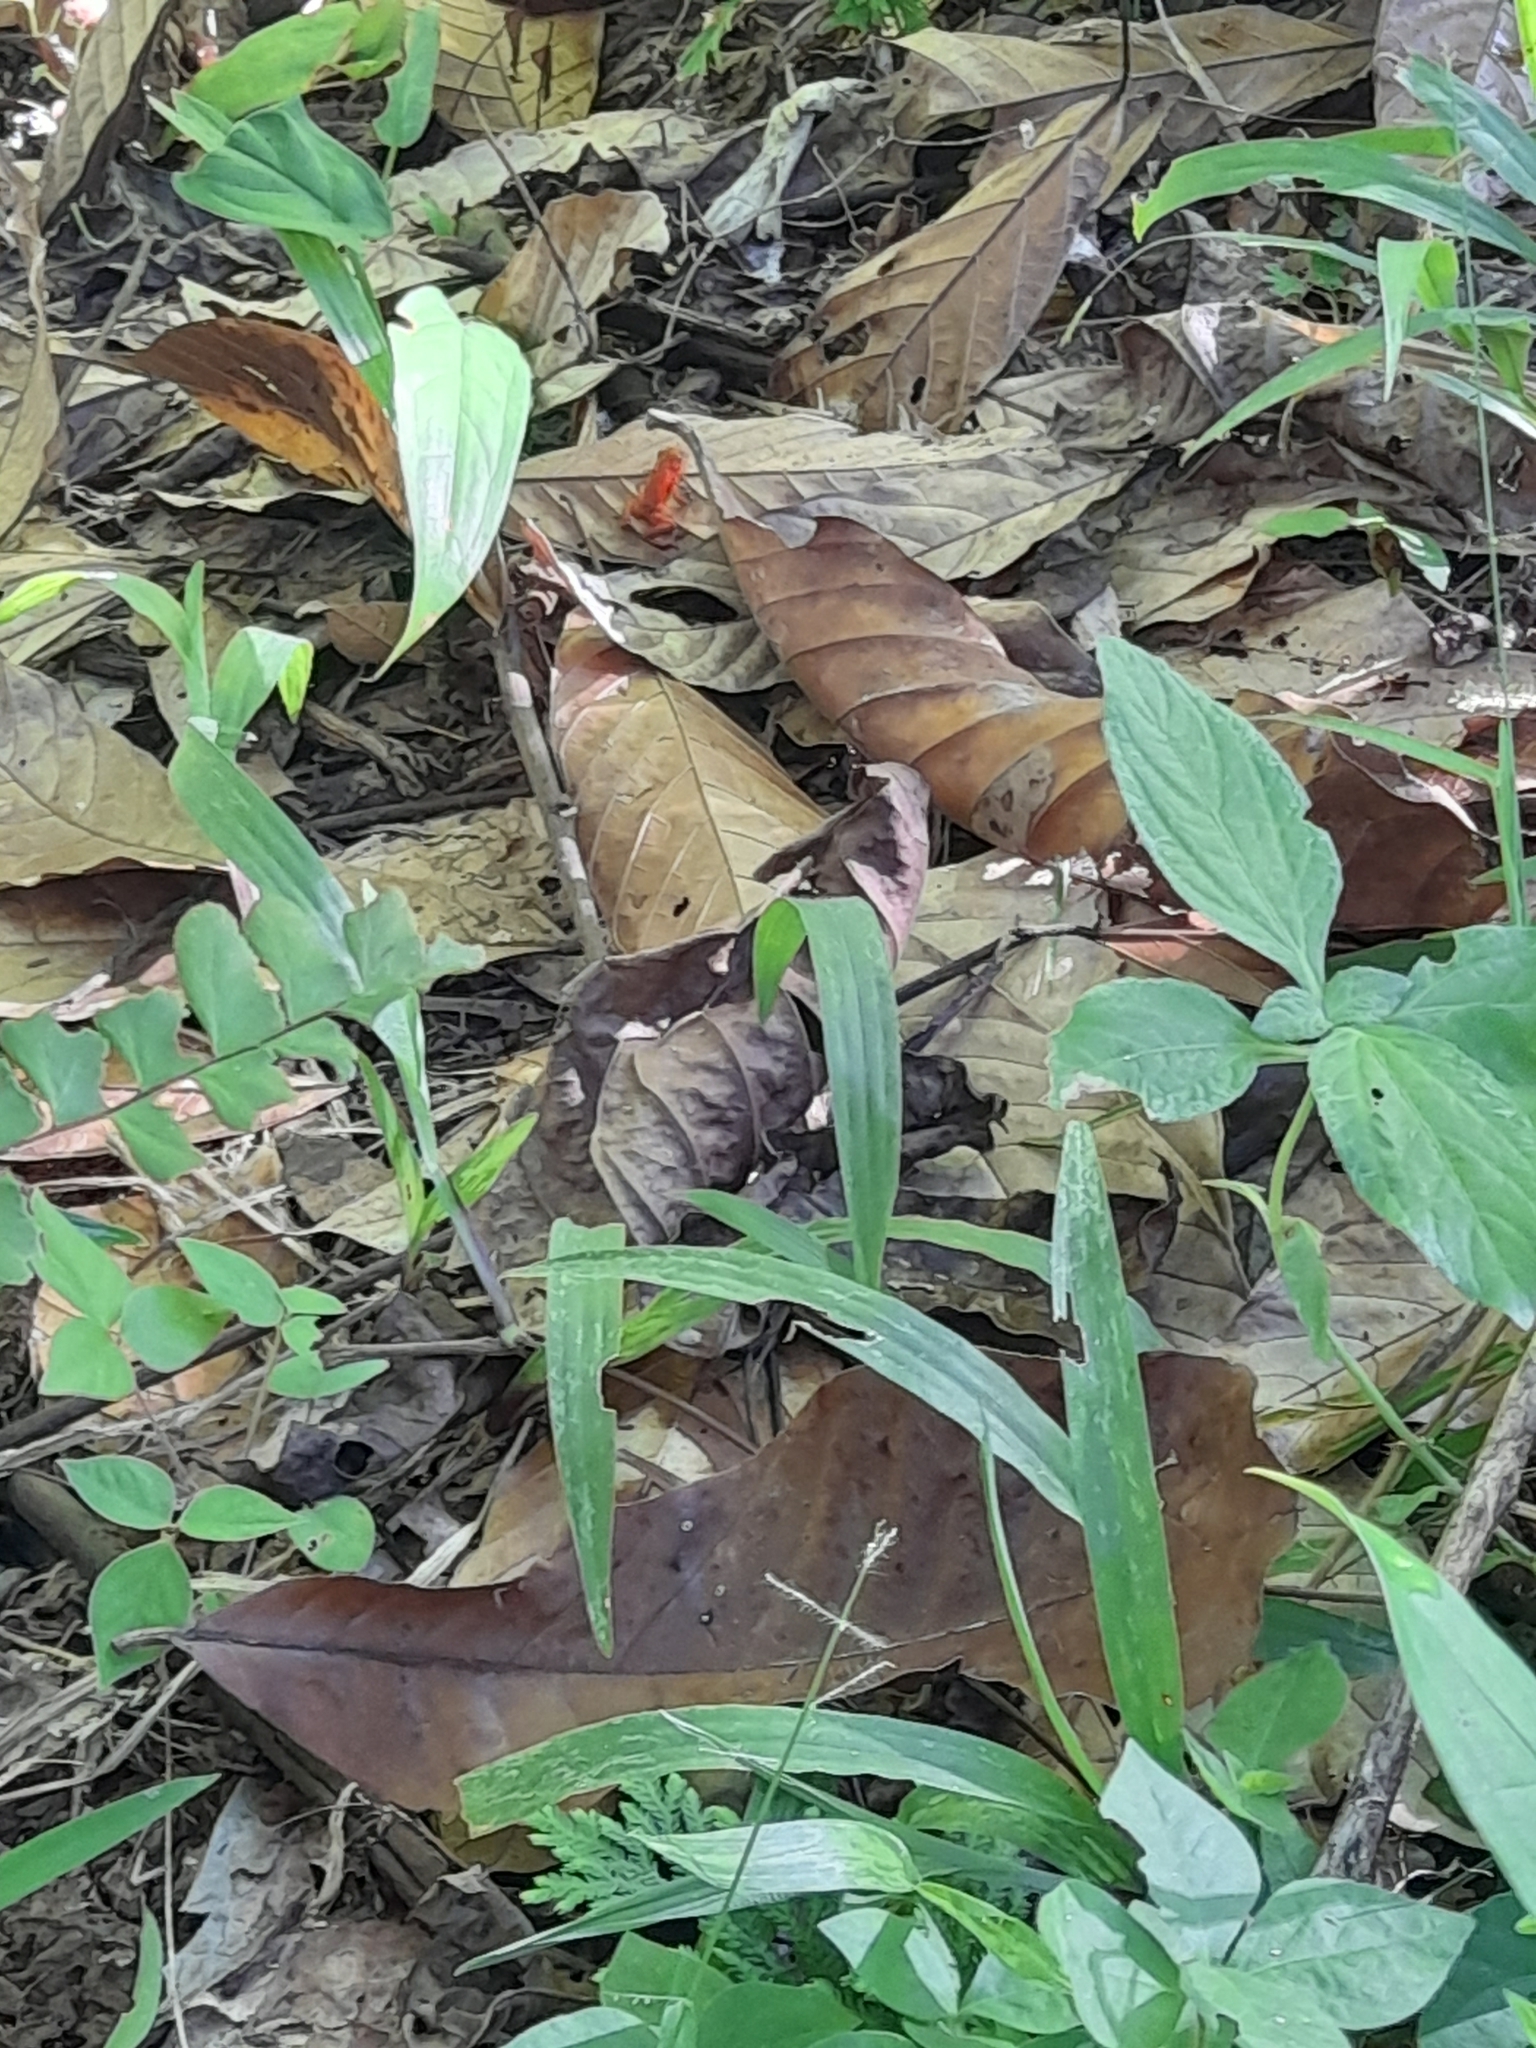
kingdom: Animalia
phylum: Chordata
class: Amphibia
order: Anura
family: Dendrobatidae
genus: Oophaga
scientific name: Oophaga pumilio
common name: Flaming poison frog
